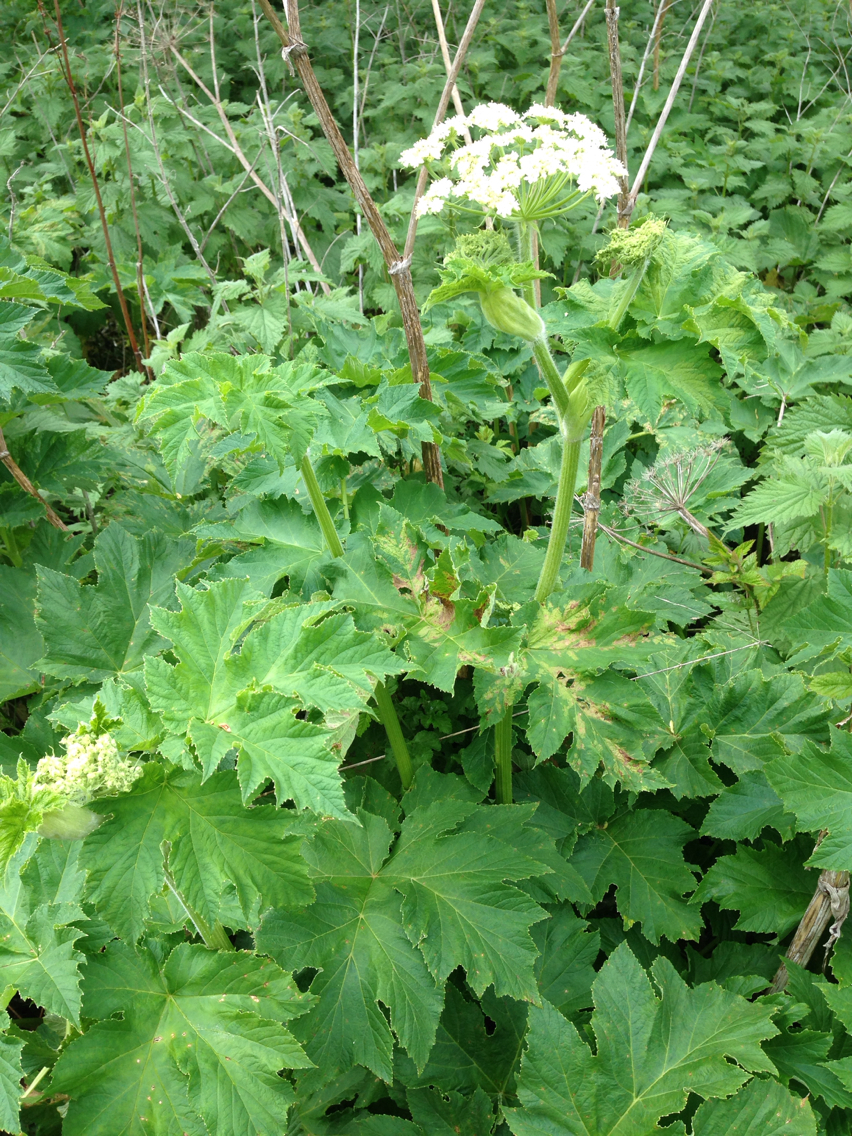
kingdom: Plantae
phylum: Tracheophyta
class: Magnoliopsida
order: Apiales
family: Apiaceae
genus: Heracleum
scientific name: Heracleum maximum
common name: American cow parsnip
